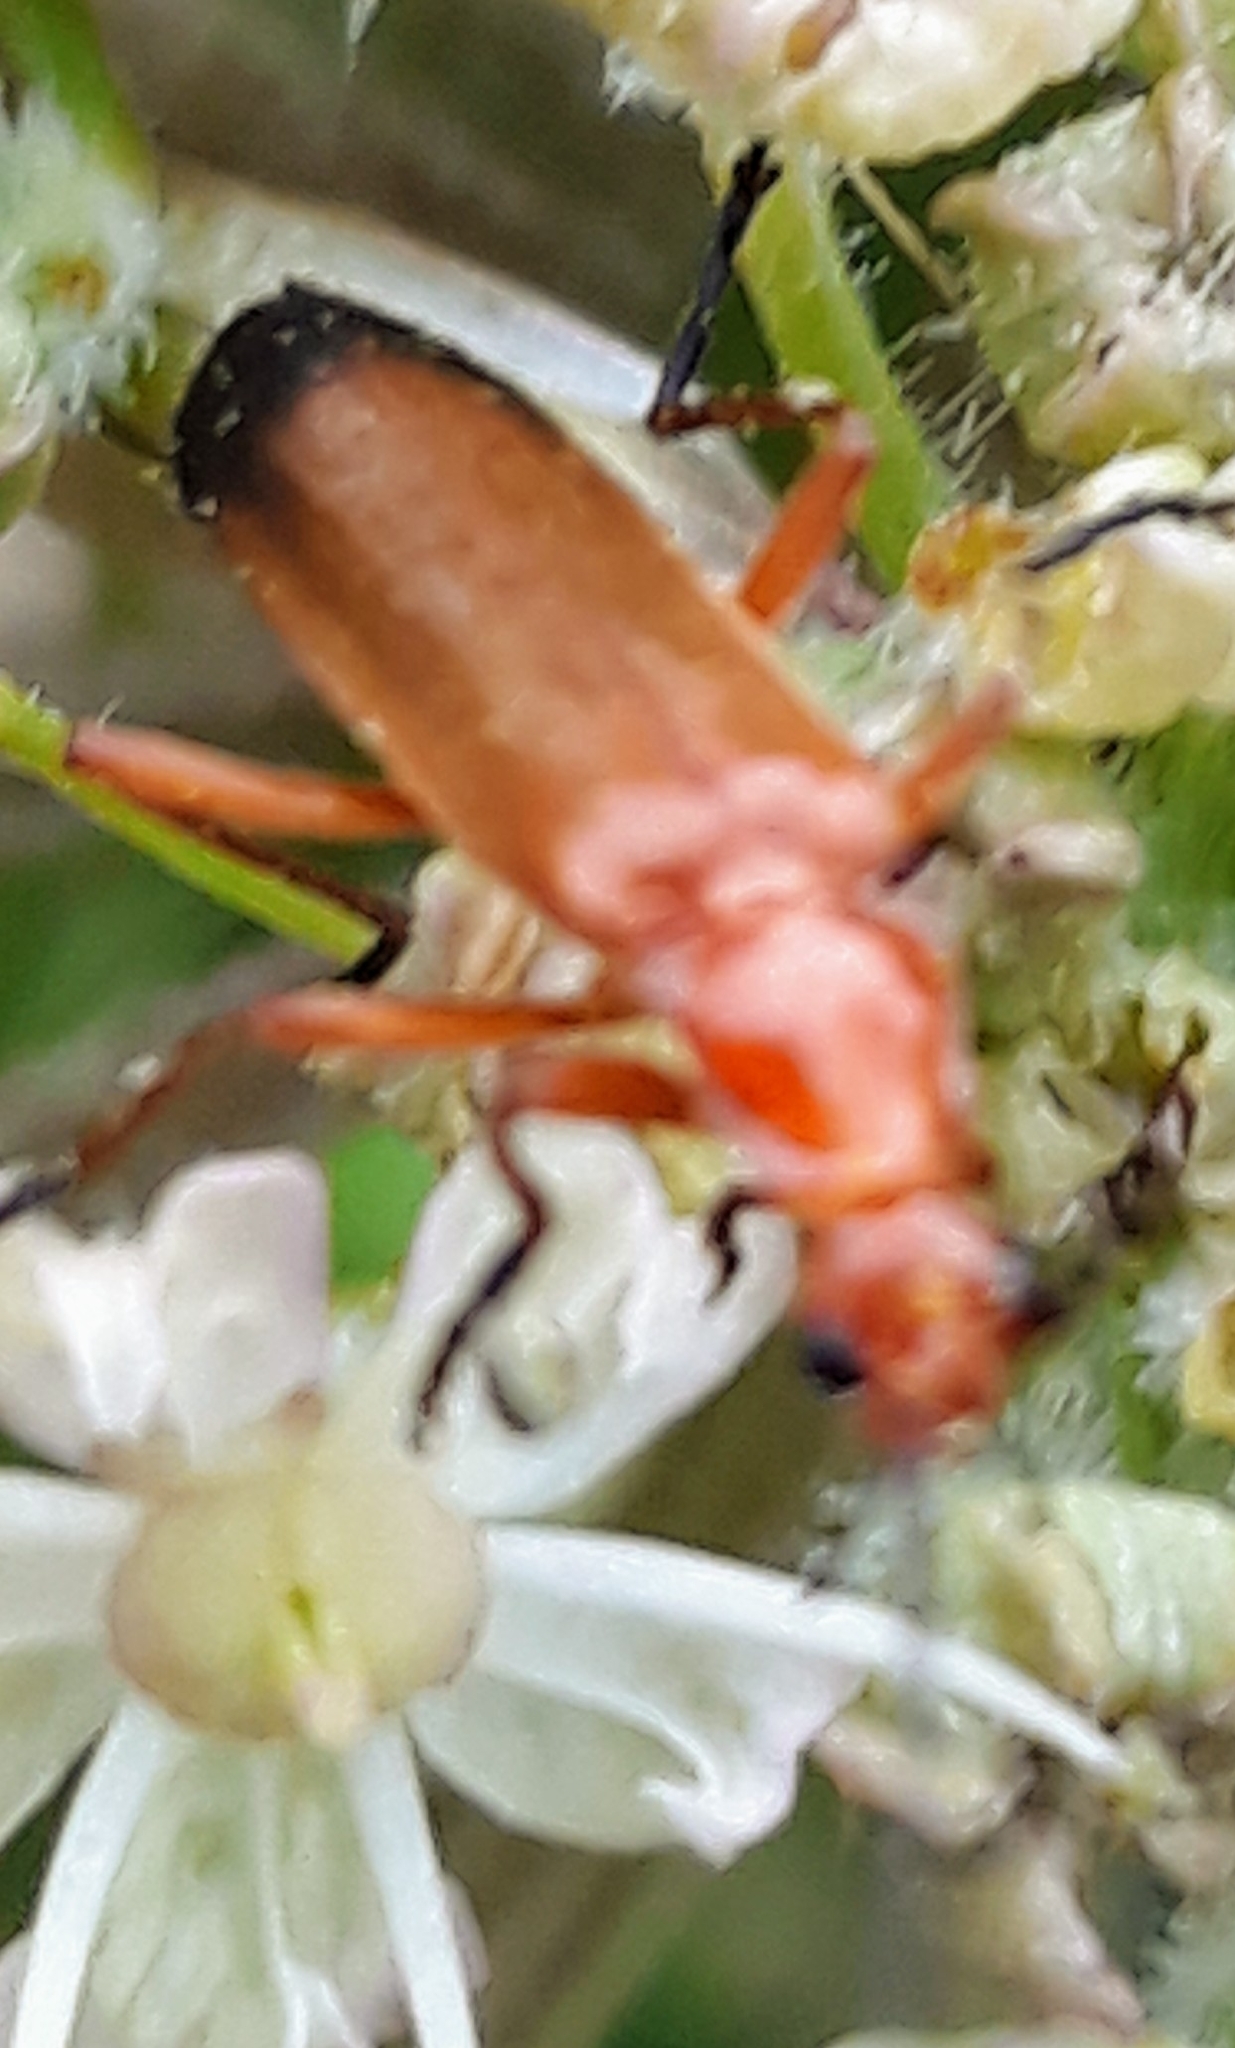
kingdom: Animalia
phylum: Arthropoda
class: Insecta
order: Coleoptera
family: Cantharidae
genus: Rhagonycha
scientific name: Rhagonycha fulva
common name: Common red soldier beetle
